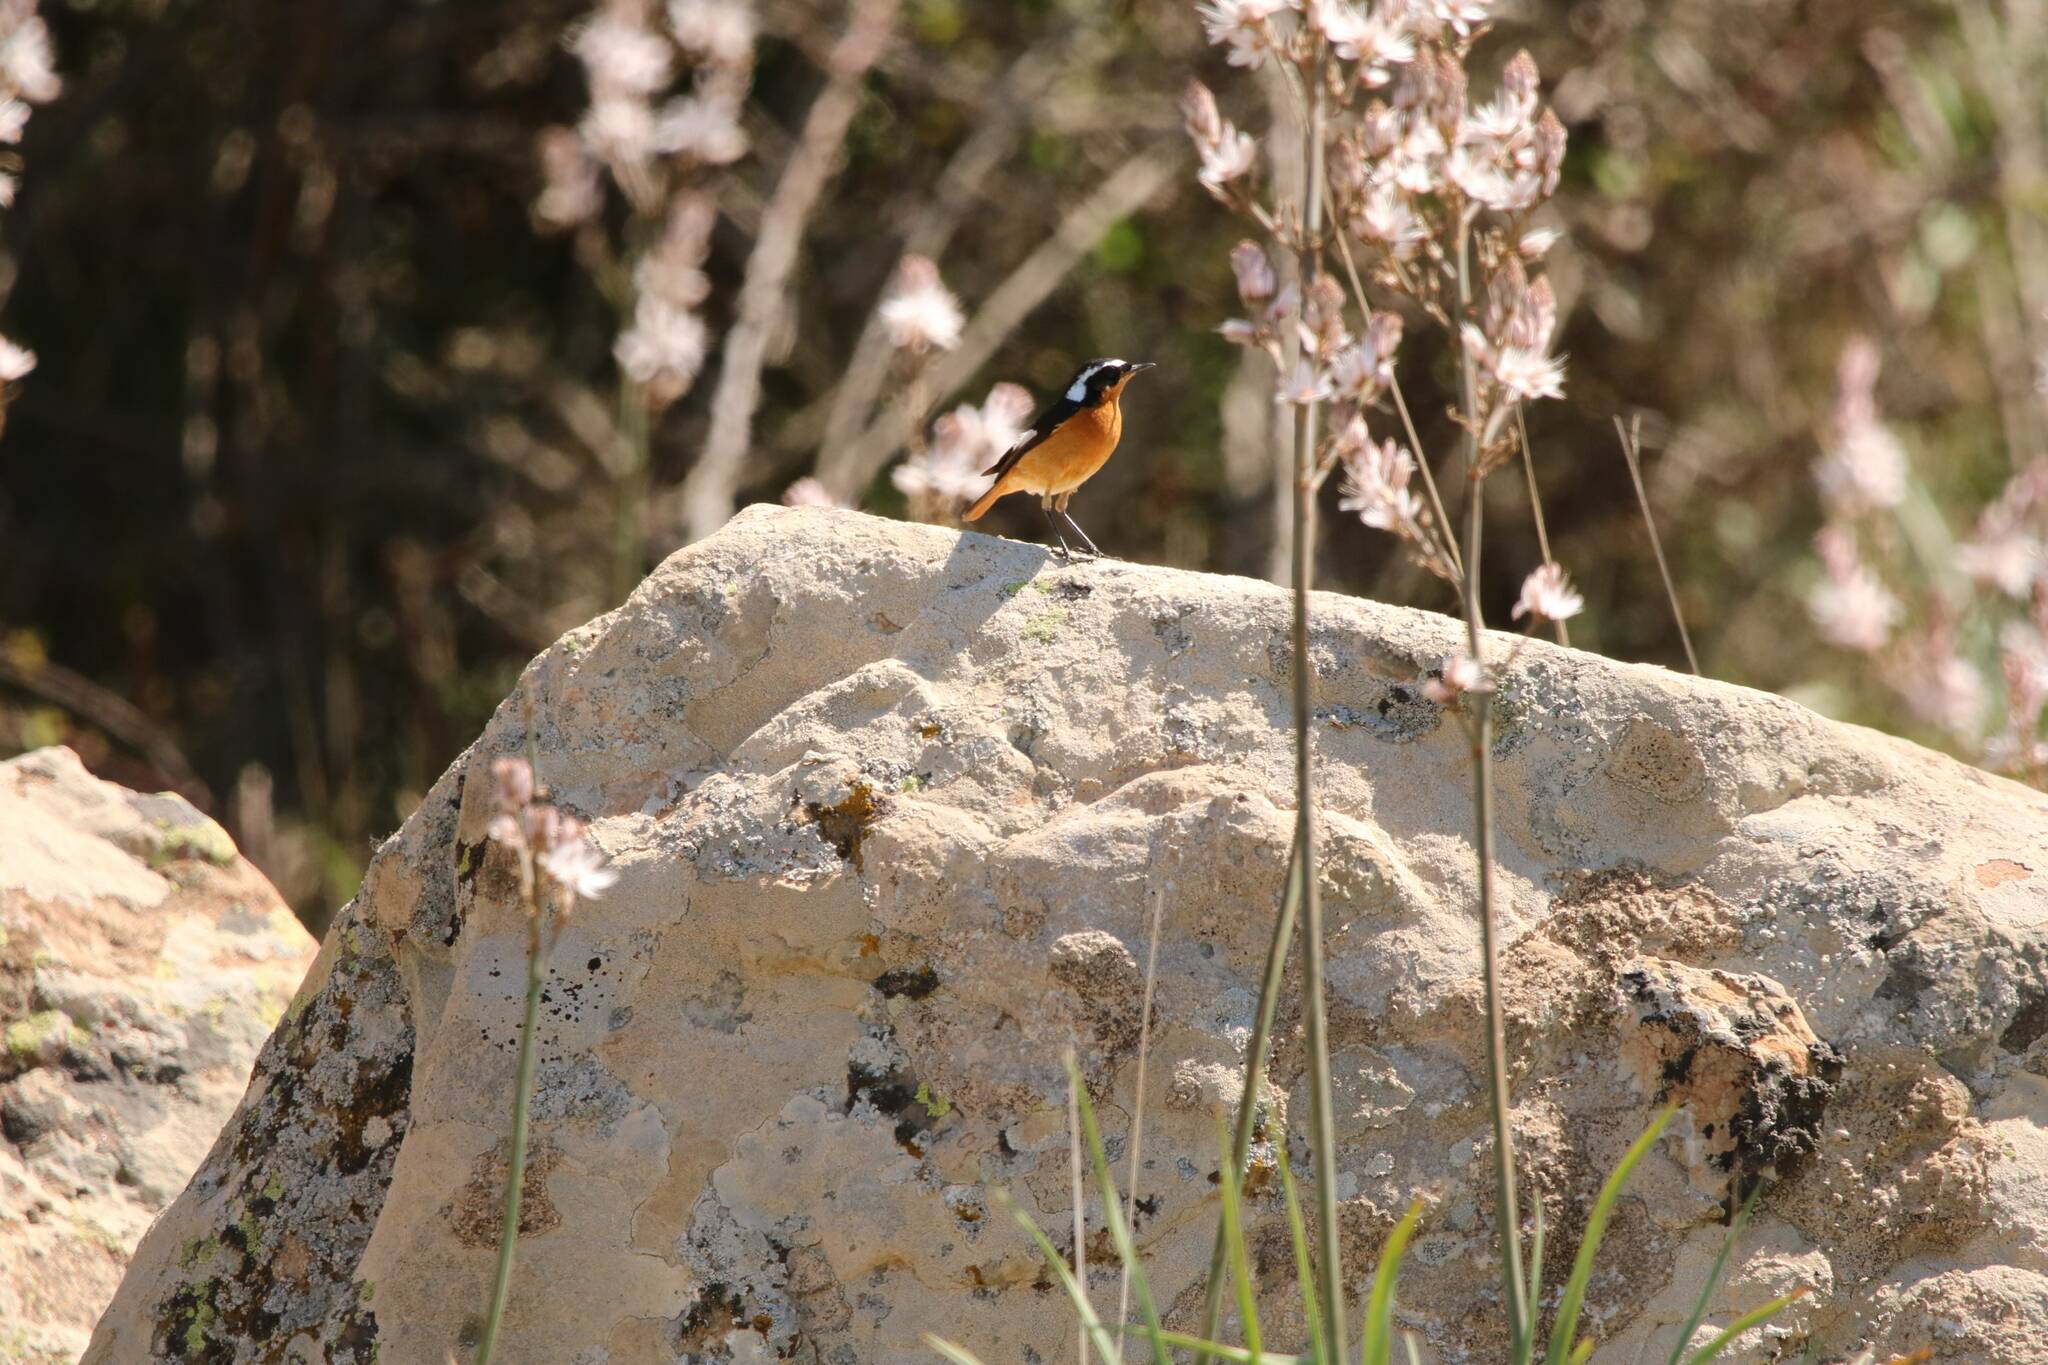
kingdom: Animalia
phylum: Chordata
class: Aves
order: Passeriformes
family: Muscicapidae
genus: Phoenicurus
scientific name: Phoenicurus moussieri
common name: Moussier's redstart
